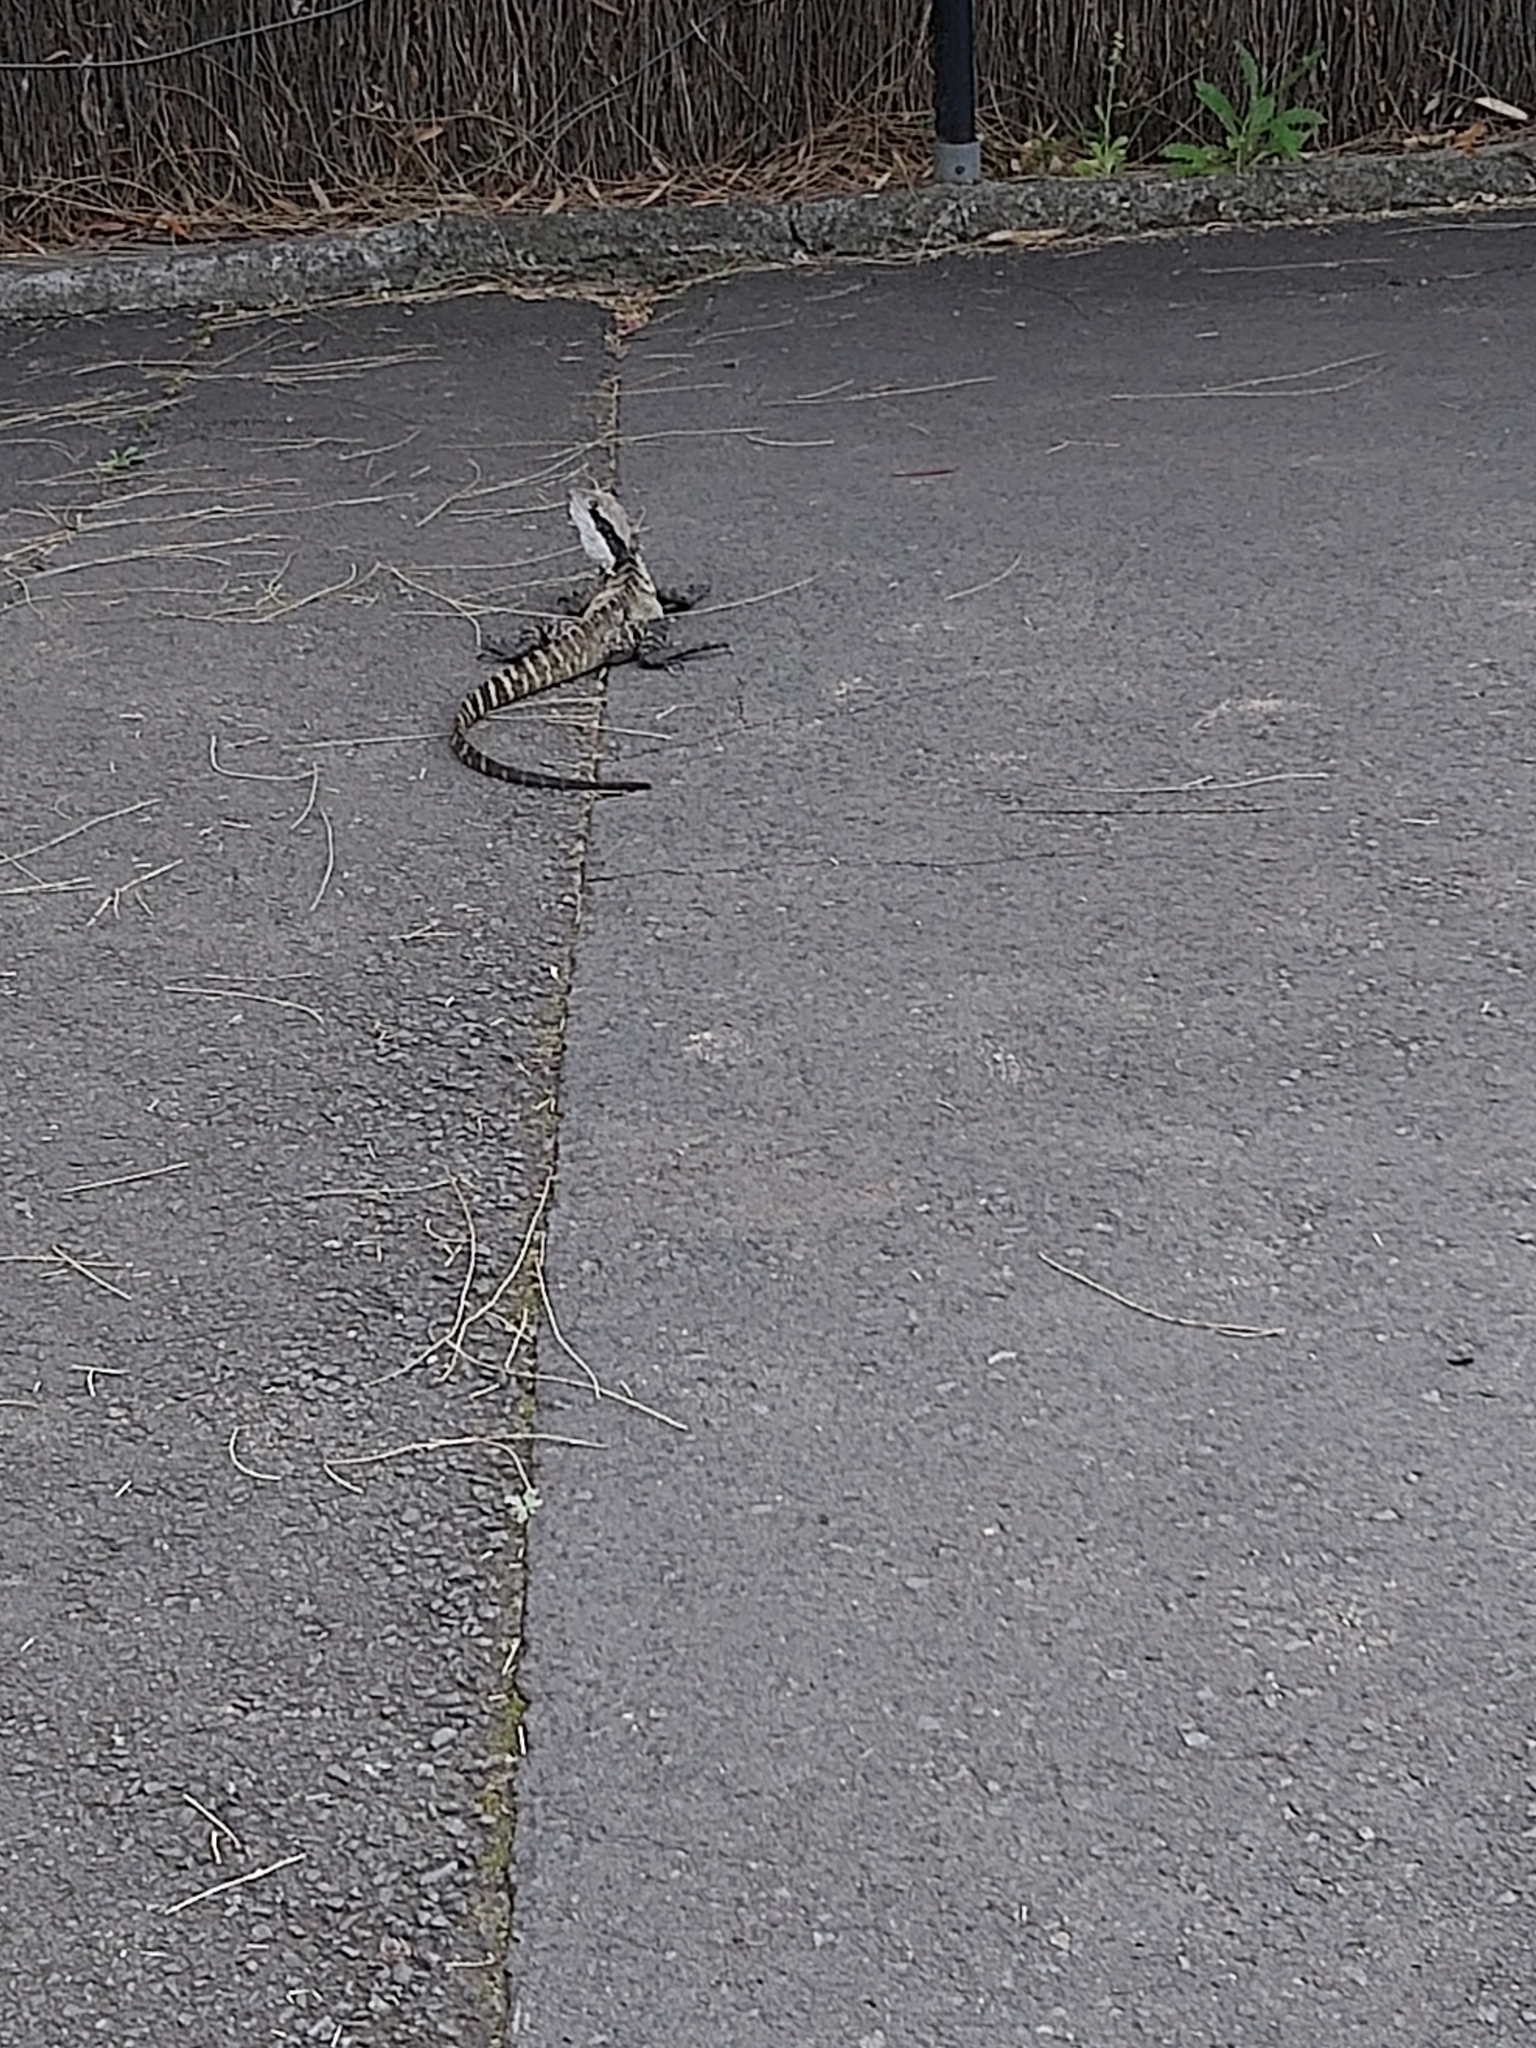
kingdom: Animalia
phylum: Chordata
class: Squamata
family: Agamidae
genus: Intellagama
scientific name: Intellagama lesueurii
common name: Eastern water dragon
